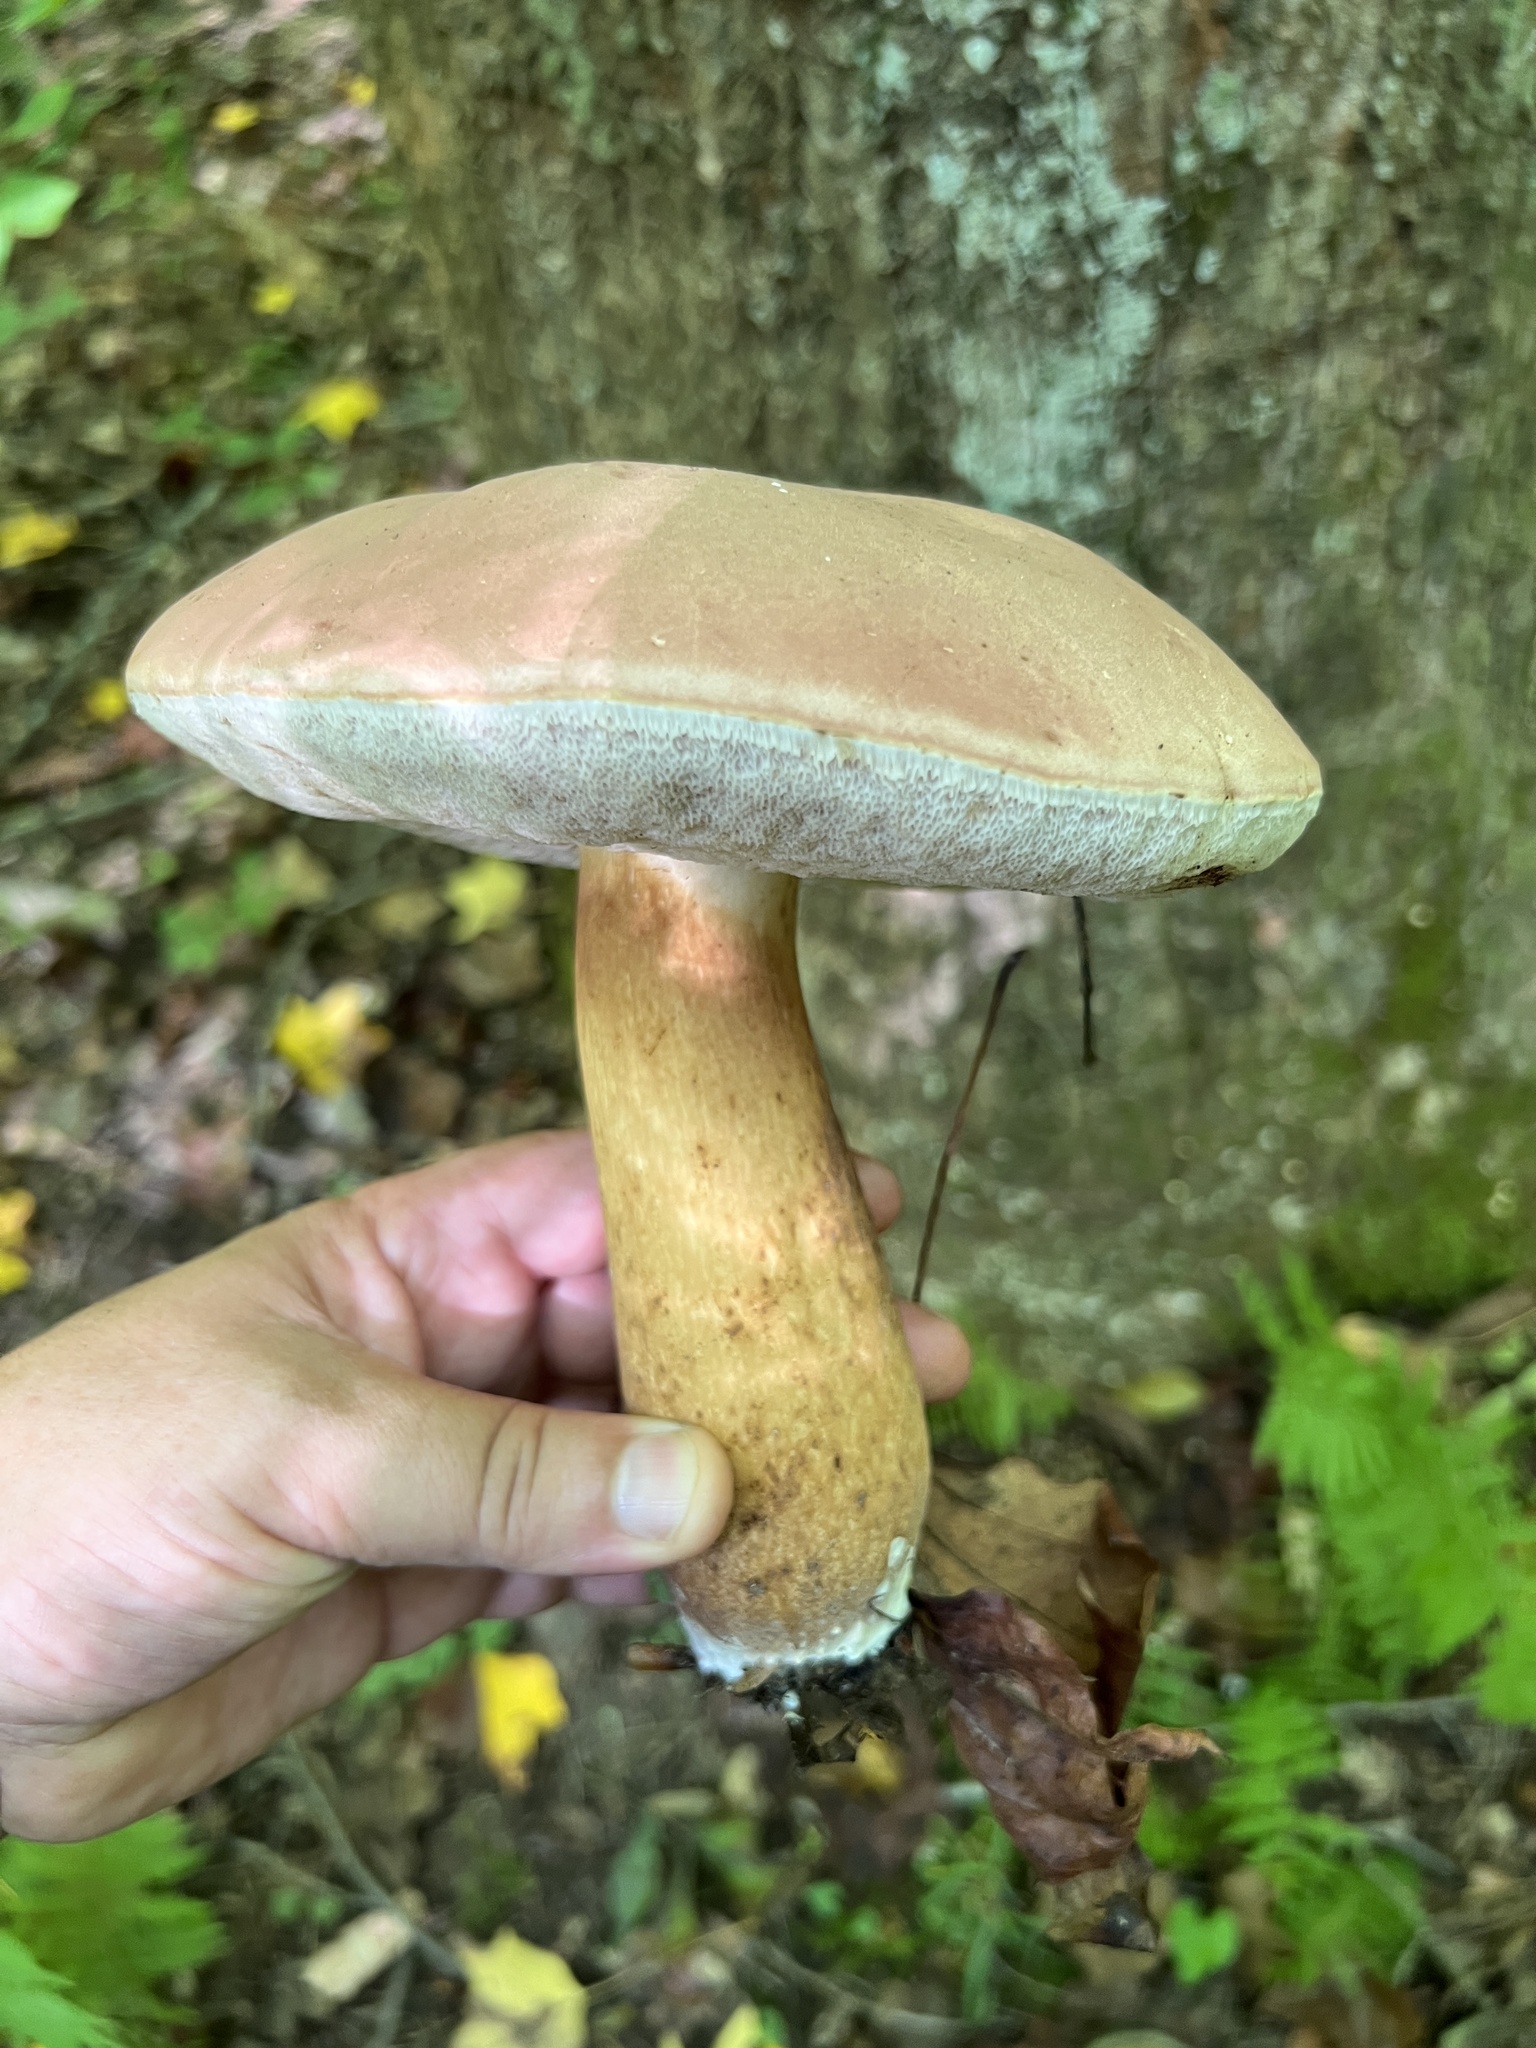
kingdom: Fungi
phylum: Basidiomycota
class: Agaricomycetes
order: Boletales
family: Boletaceae
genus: Tylopilus
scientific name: Tylopilus rubrobrunneus
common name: Reddish brown bitter bolete
